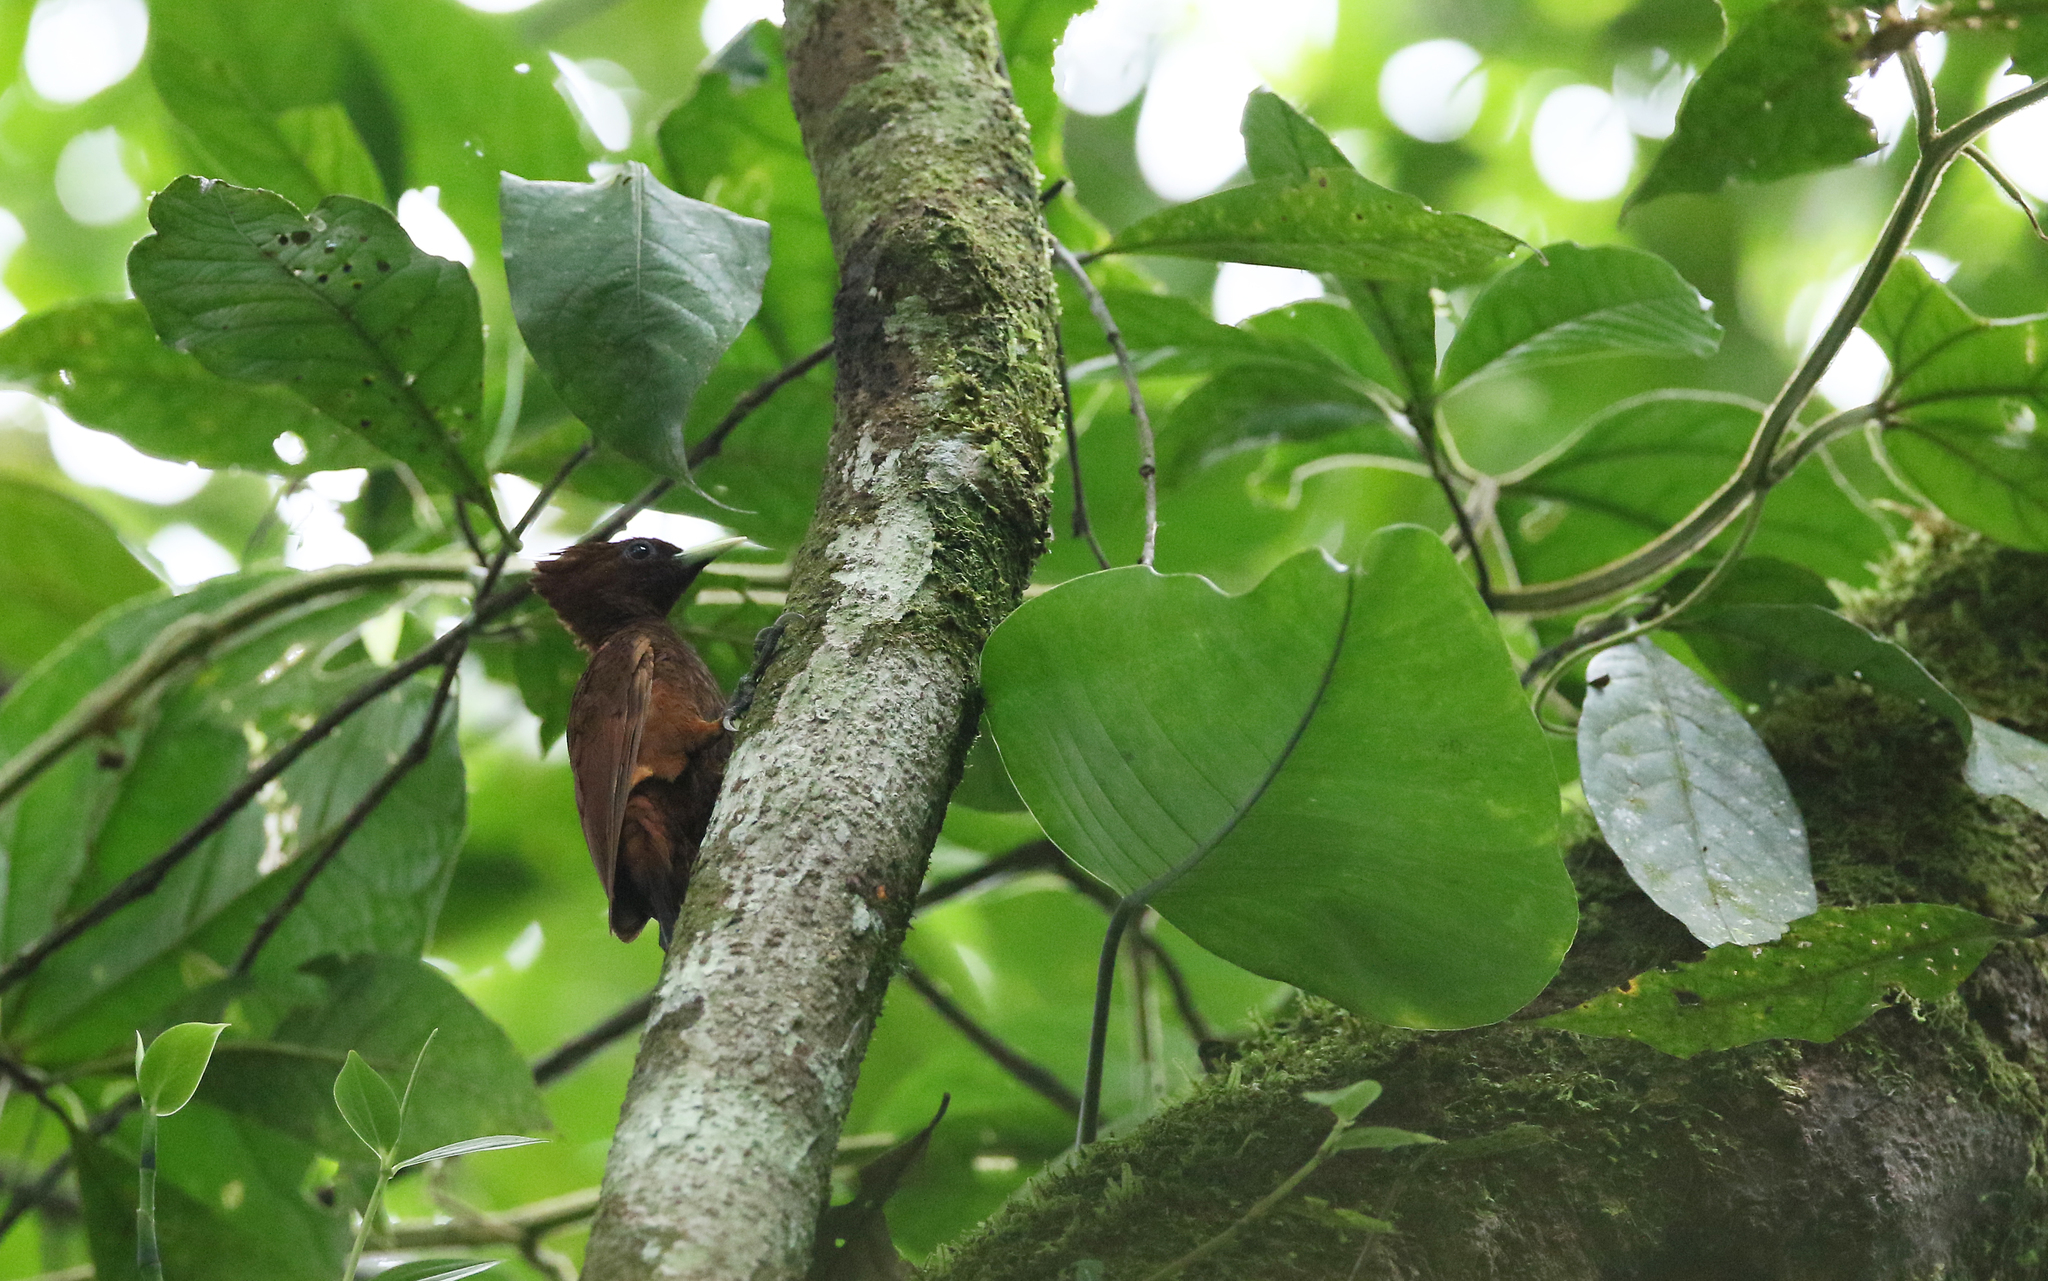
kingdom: Animalia
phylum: Chordata
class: Aves
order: Piciformes
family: Picidae
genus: Celeus
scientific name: Celeus elegans
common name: Chestnut woodpecker
